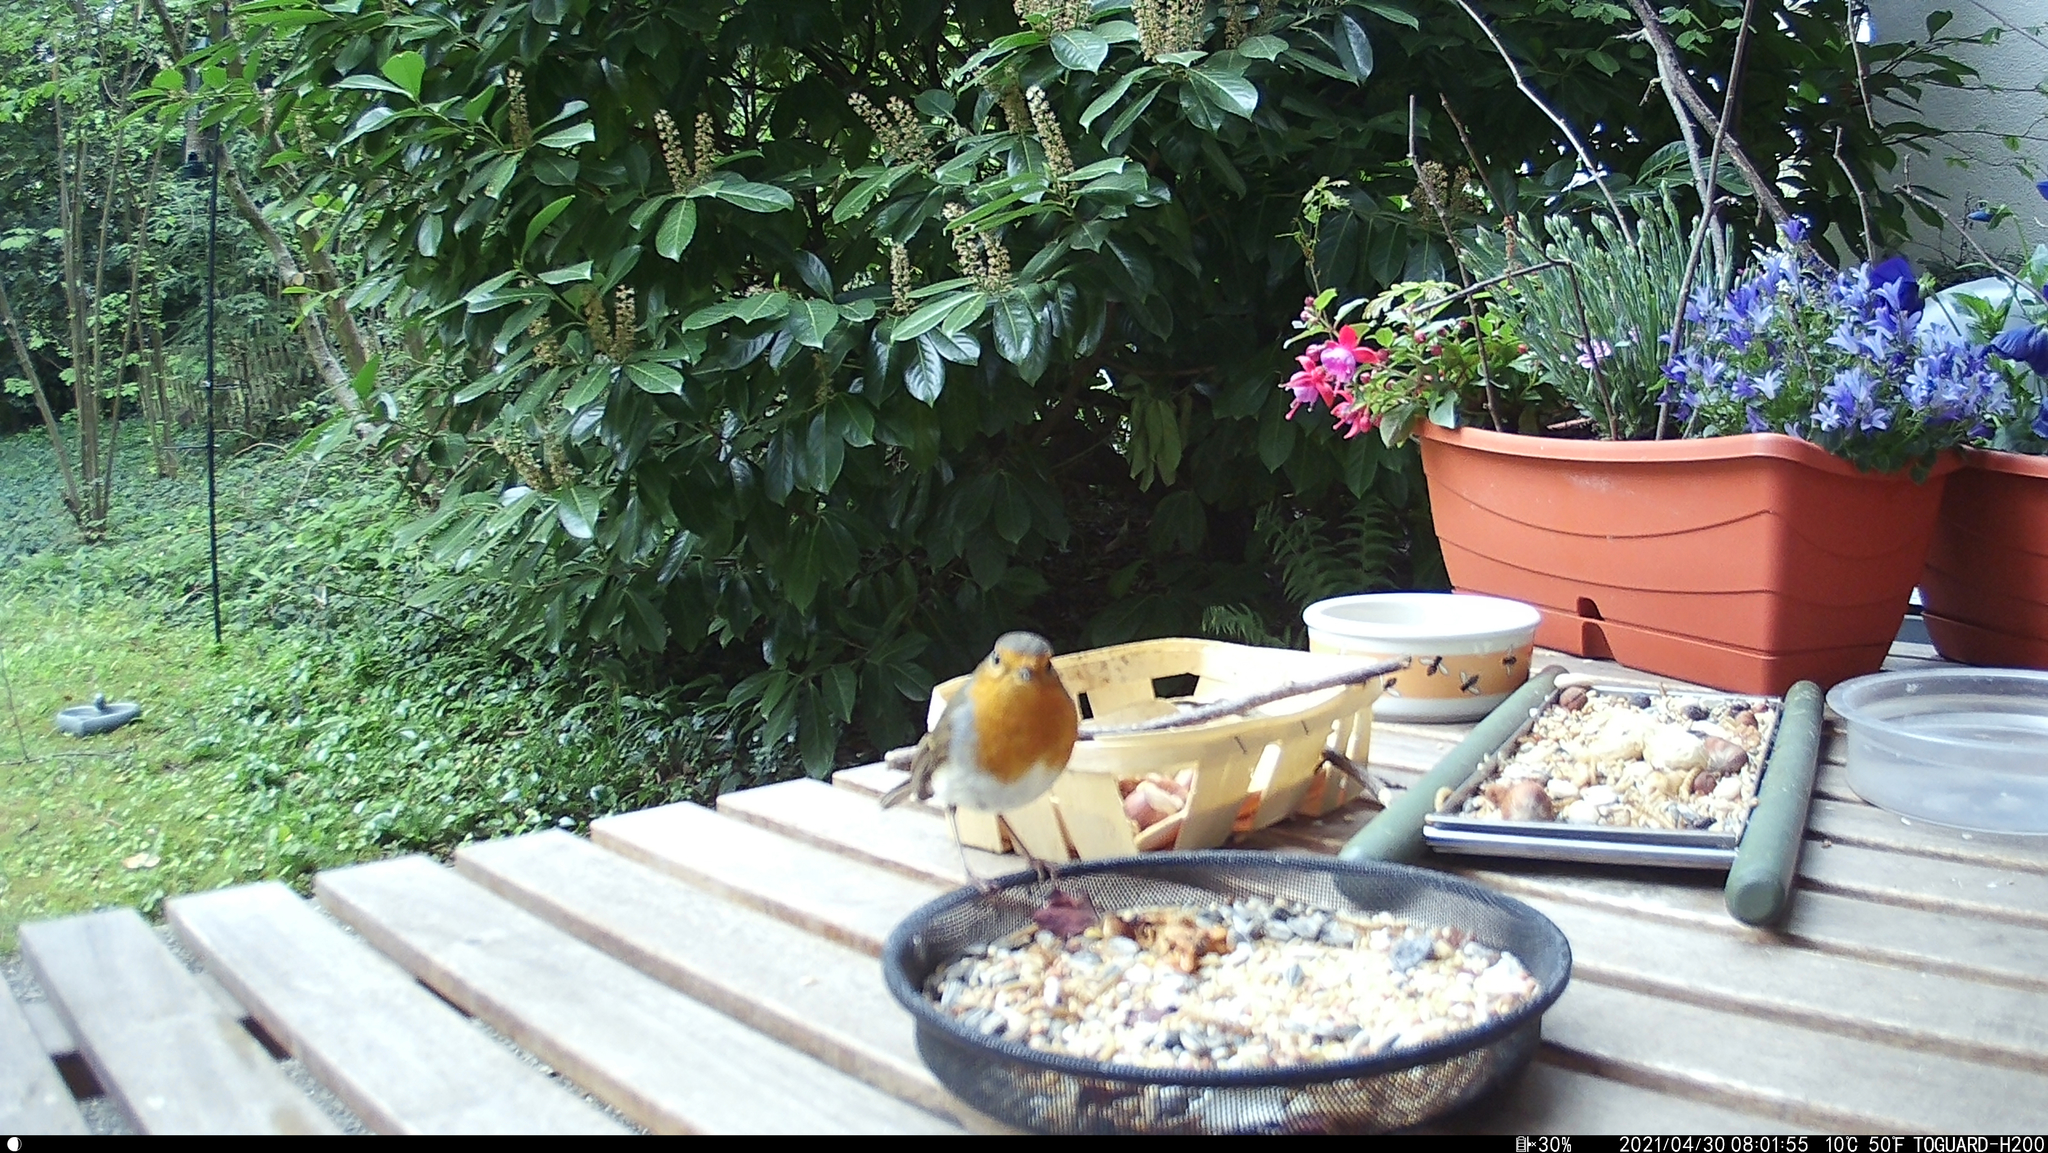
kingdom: Animalia
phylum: Chordata
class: Aves
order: Passeriformes
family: Muscicapidae
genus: Erithacus
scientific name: Erithacus rubecula
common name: European robin
